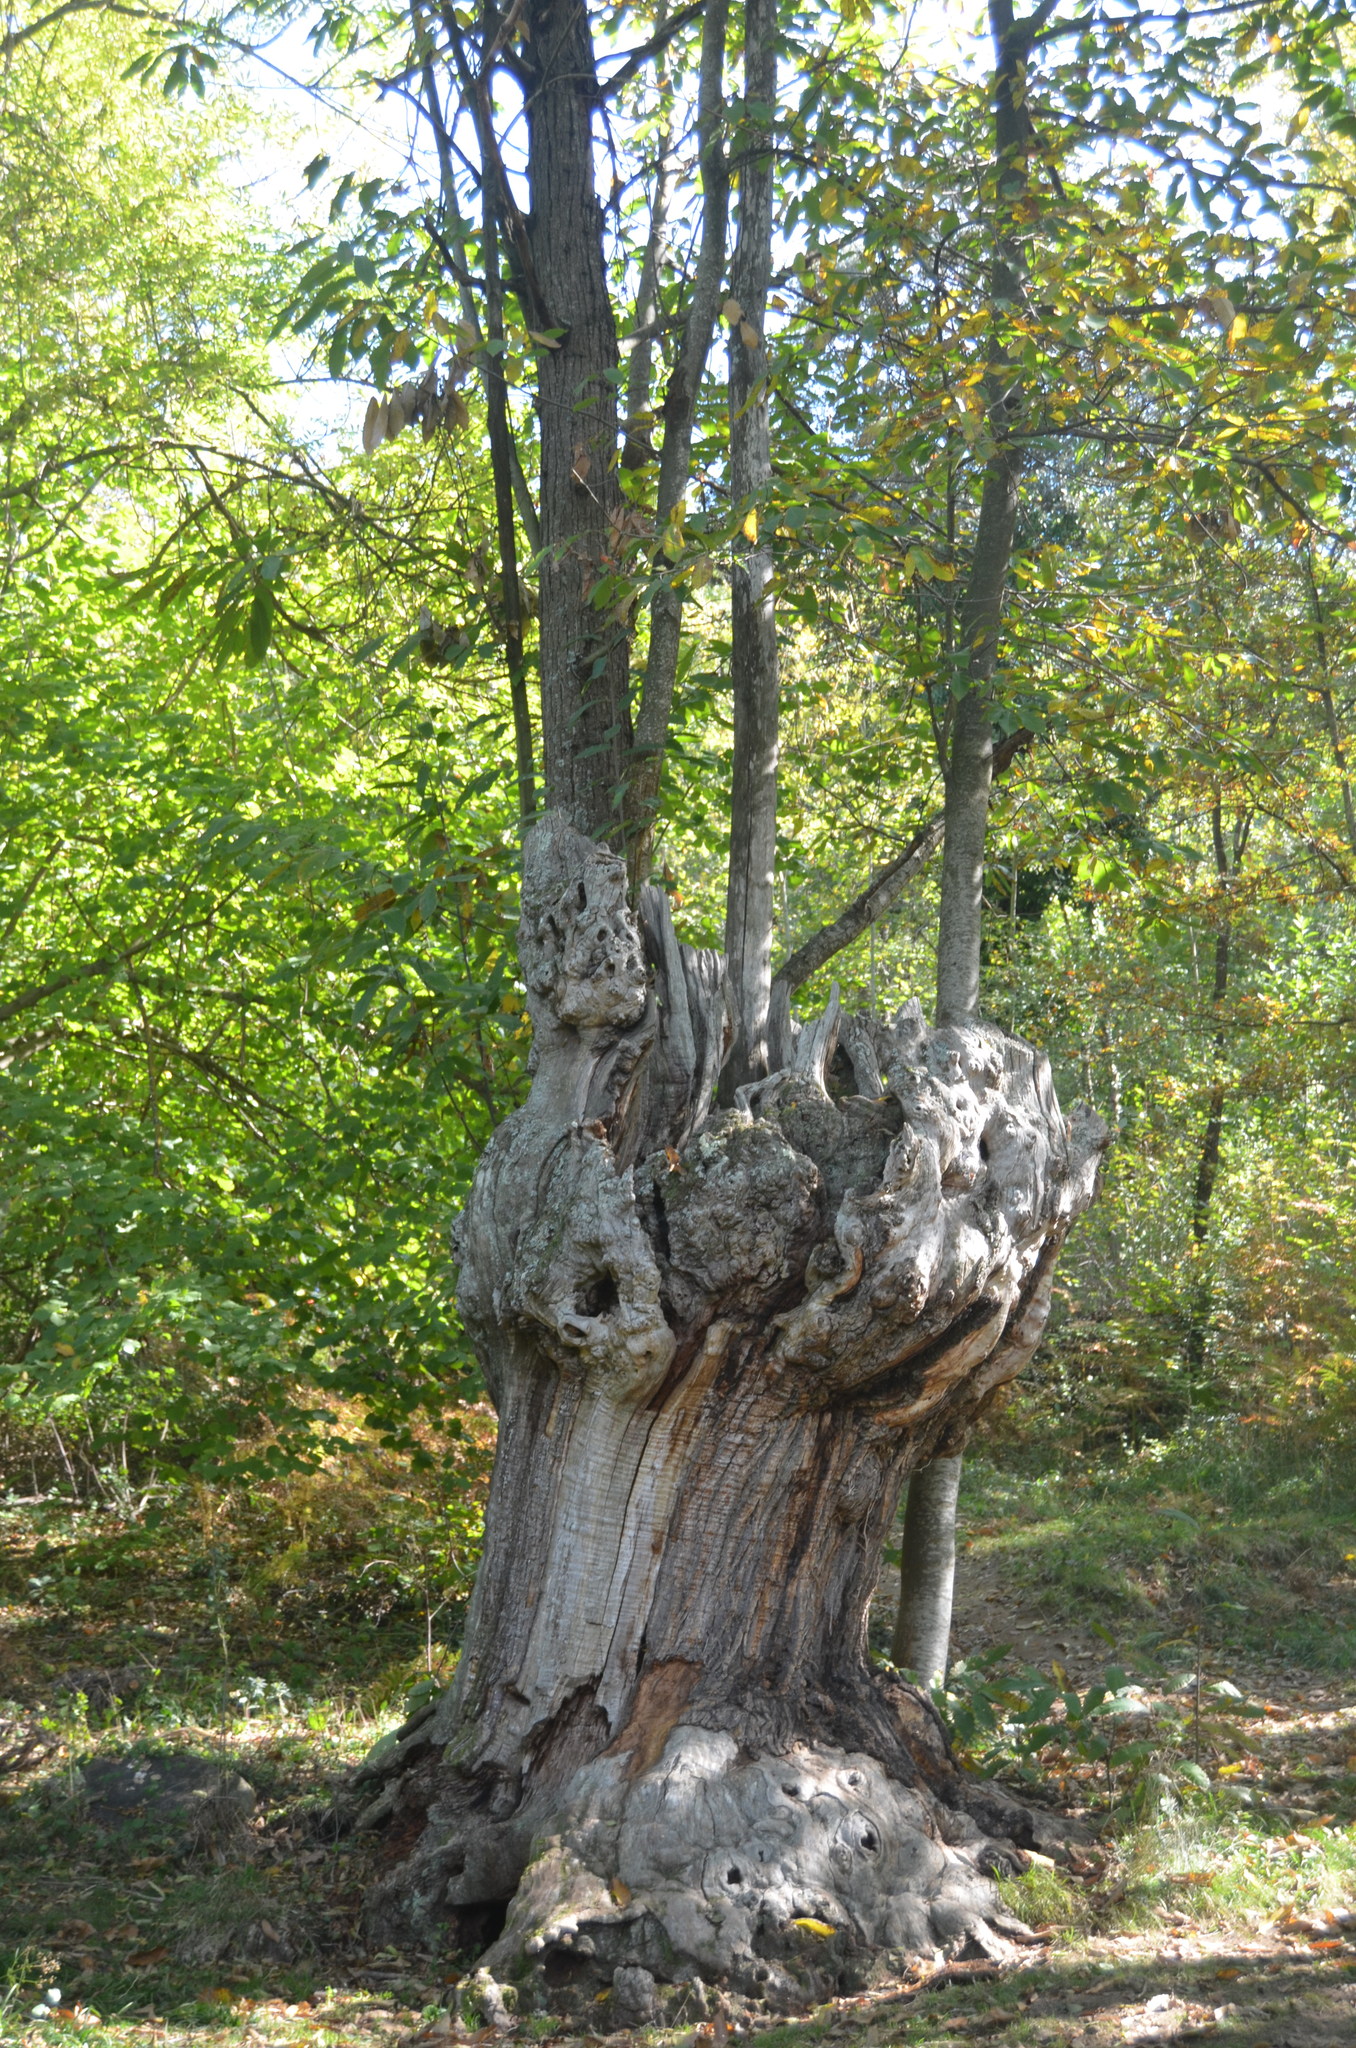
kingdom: Plantae
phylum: Tracheophyta
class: Magnoliopsida
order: Fagales
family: Fagaceae
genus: Castanea
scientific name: Castanea sativa
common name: Sweet chestnut
